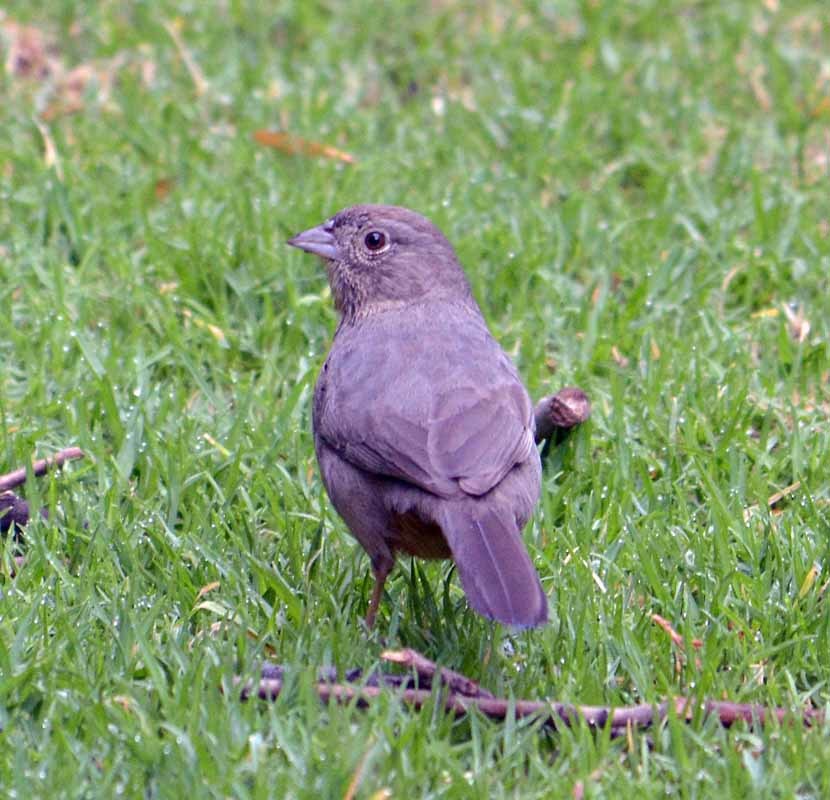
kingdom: Animalia
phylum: Chordata
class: Aves
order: Passeriformes
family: Passerellidae
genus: Melozone
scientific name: Melozone fusca
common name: Canyon towhee
